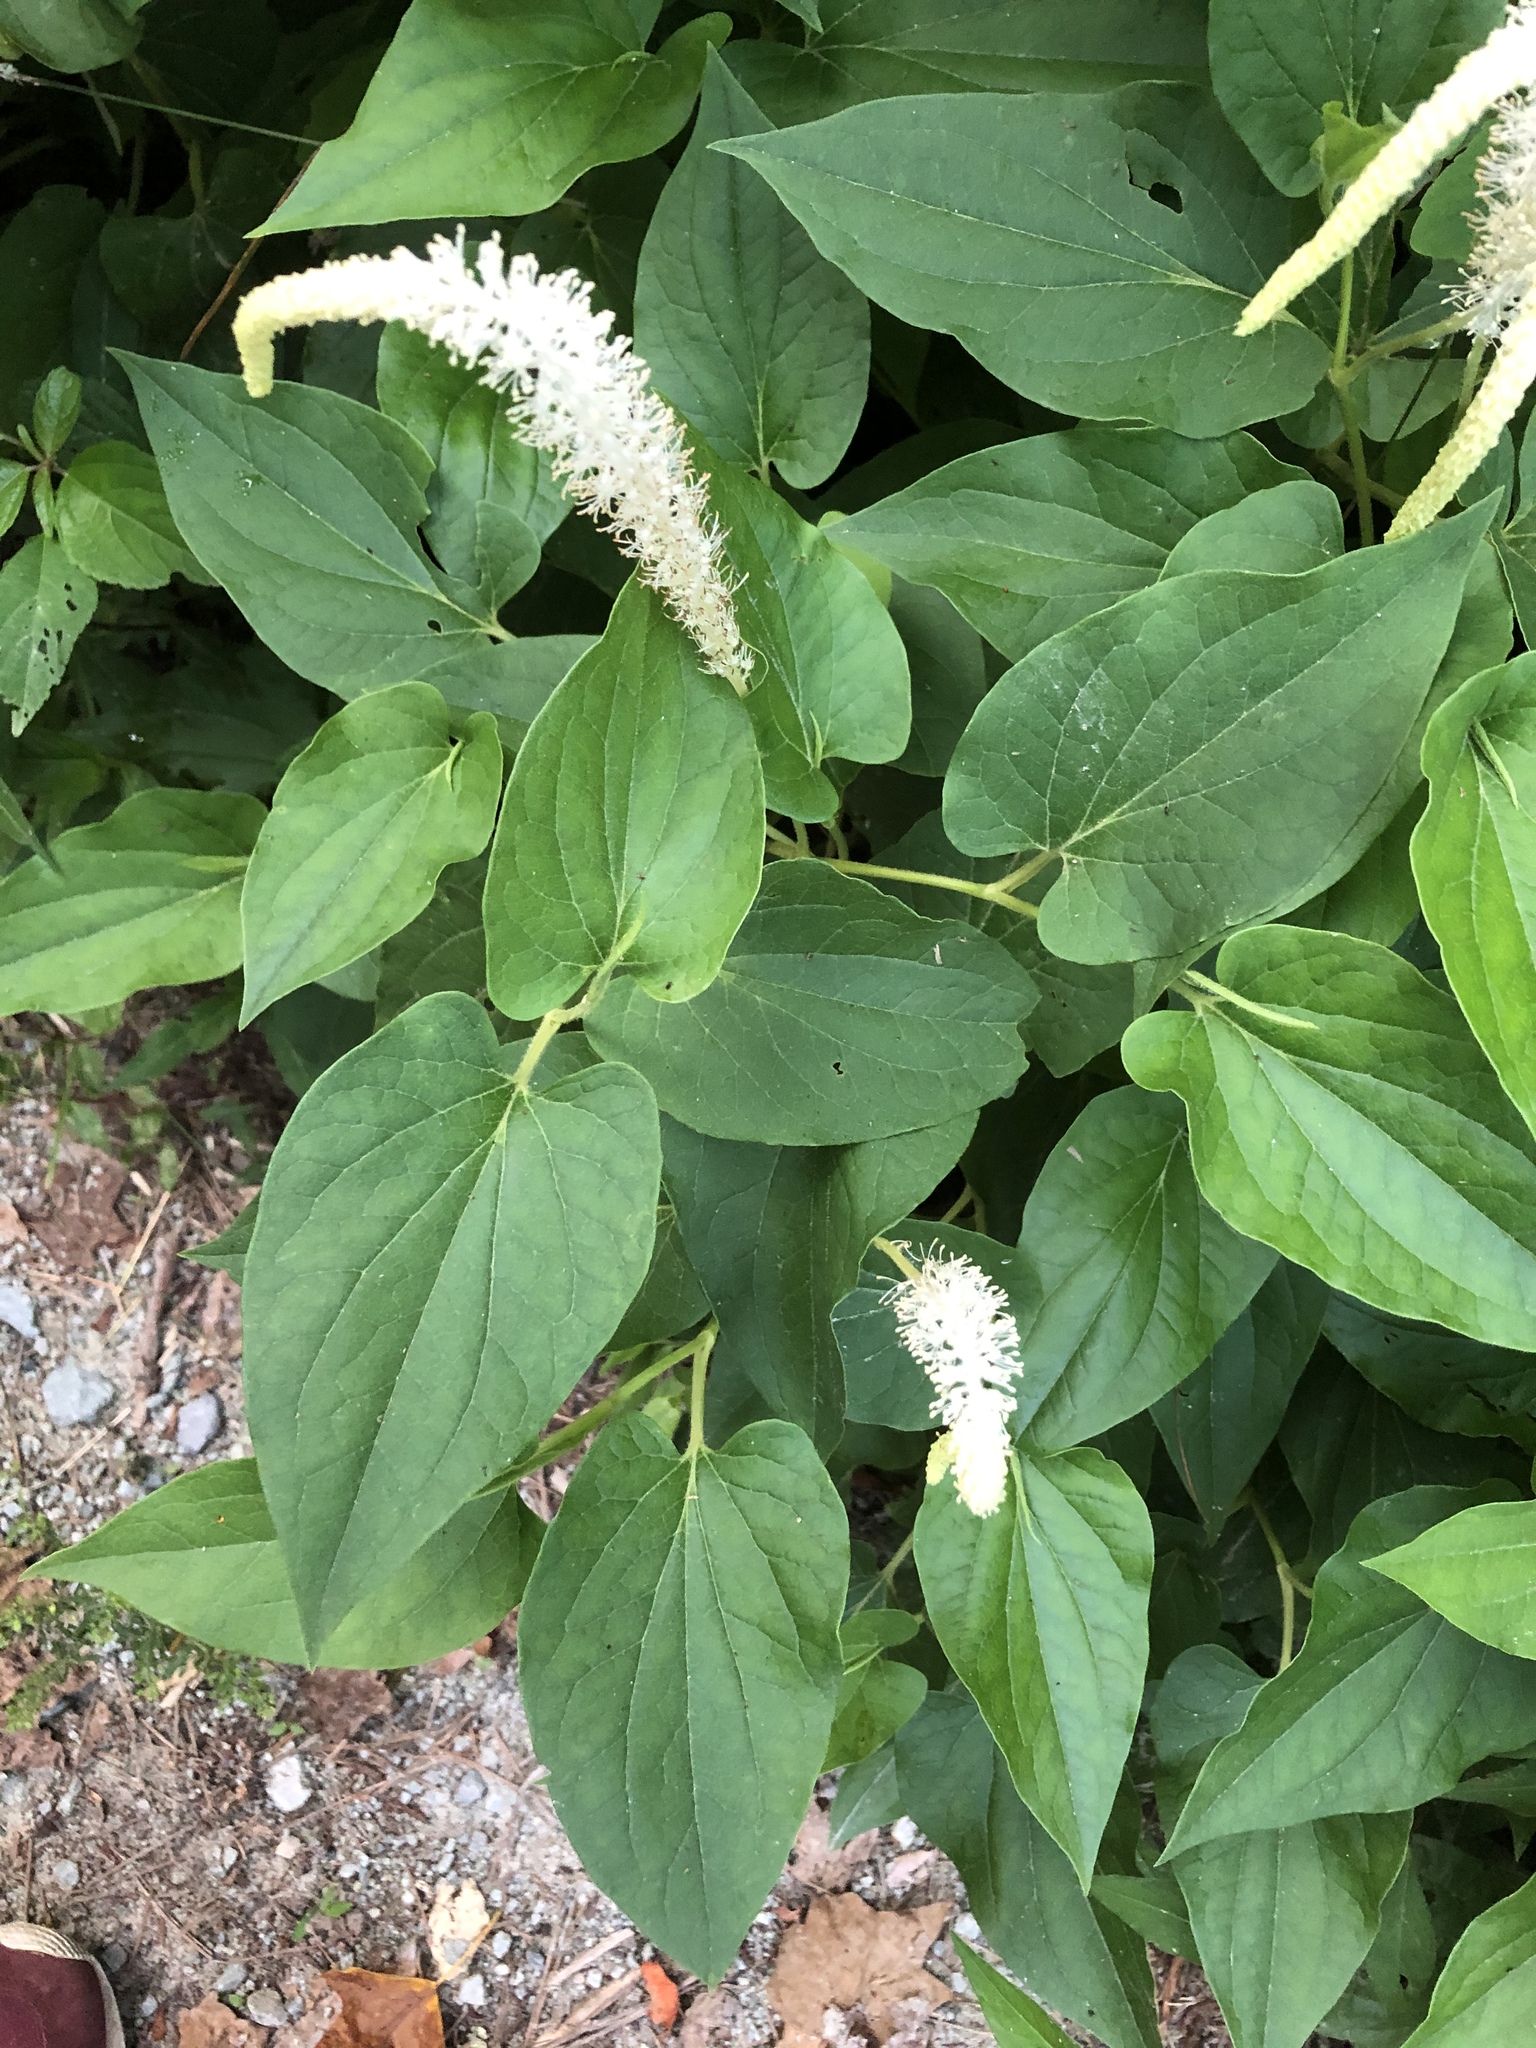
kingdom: Plantae
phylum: Tracheophyta
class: Magnoliopsida
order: Piperales
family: Saururaceae
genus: Saururus
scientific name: Saururus cernuus
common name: Lizard's-tail
